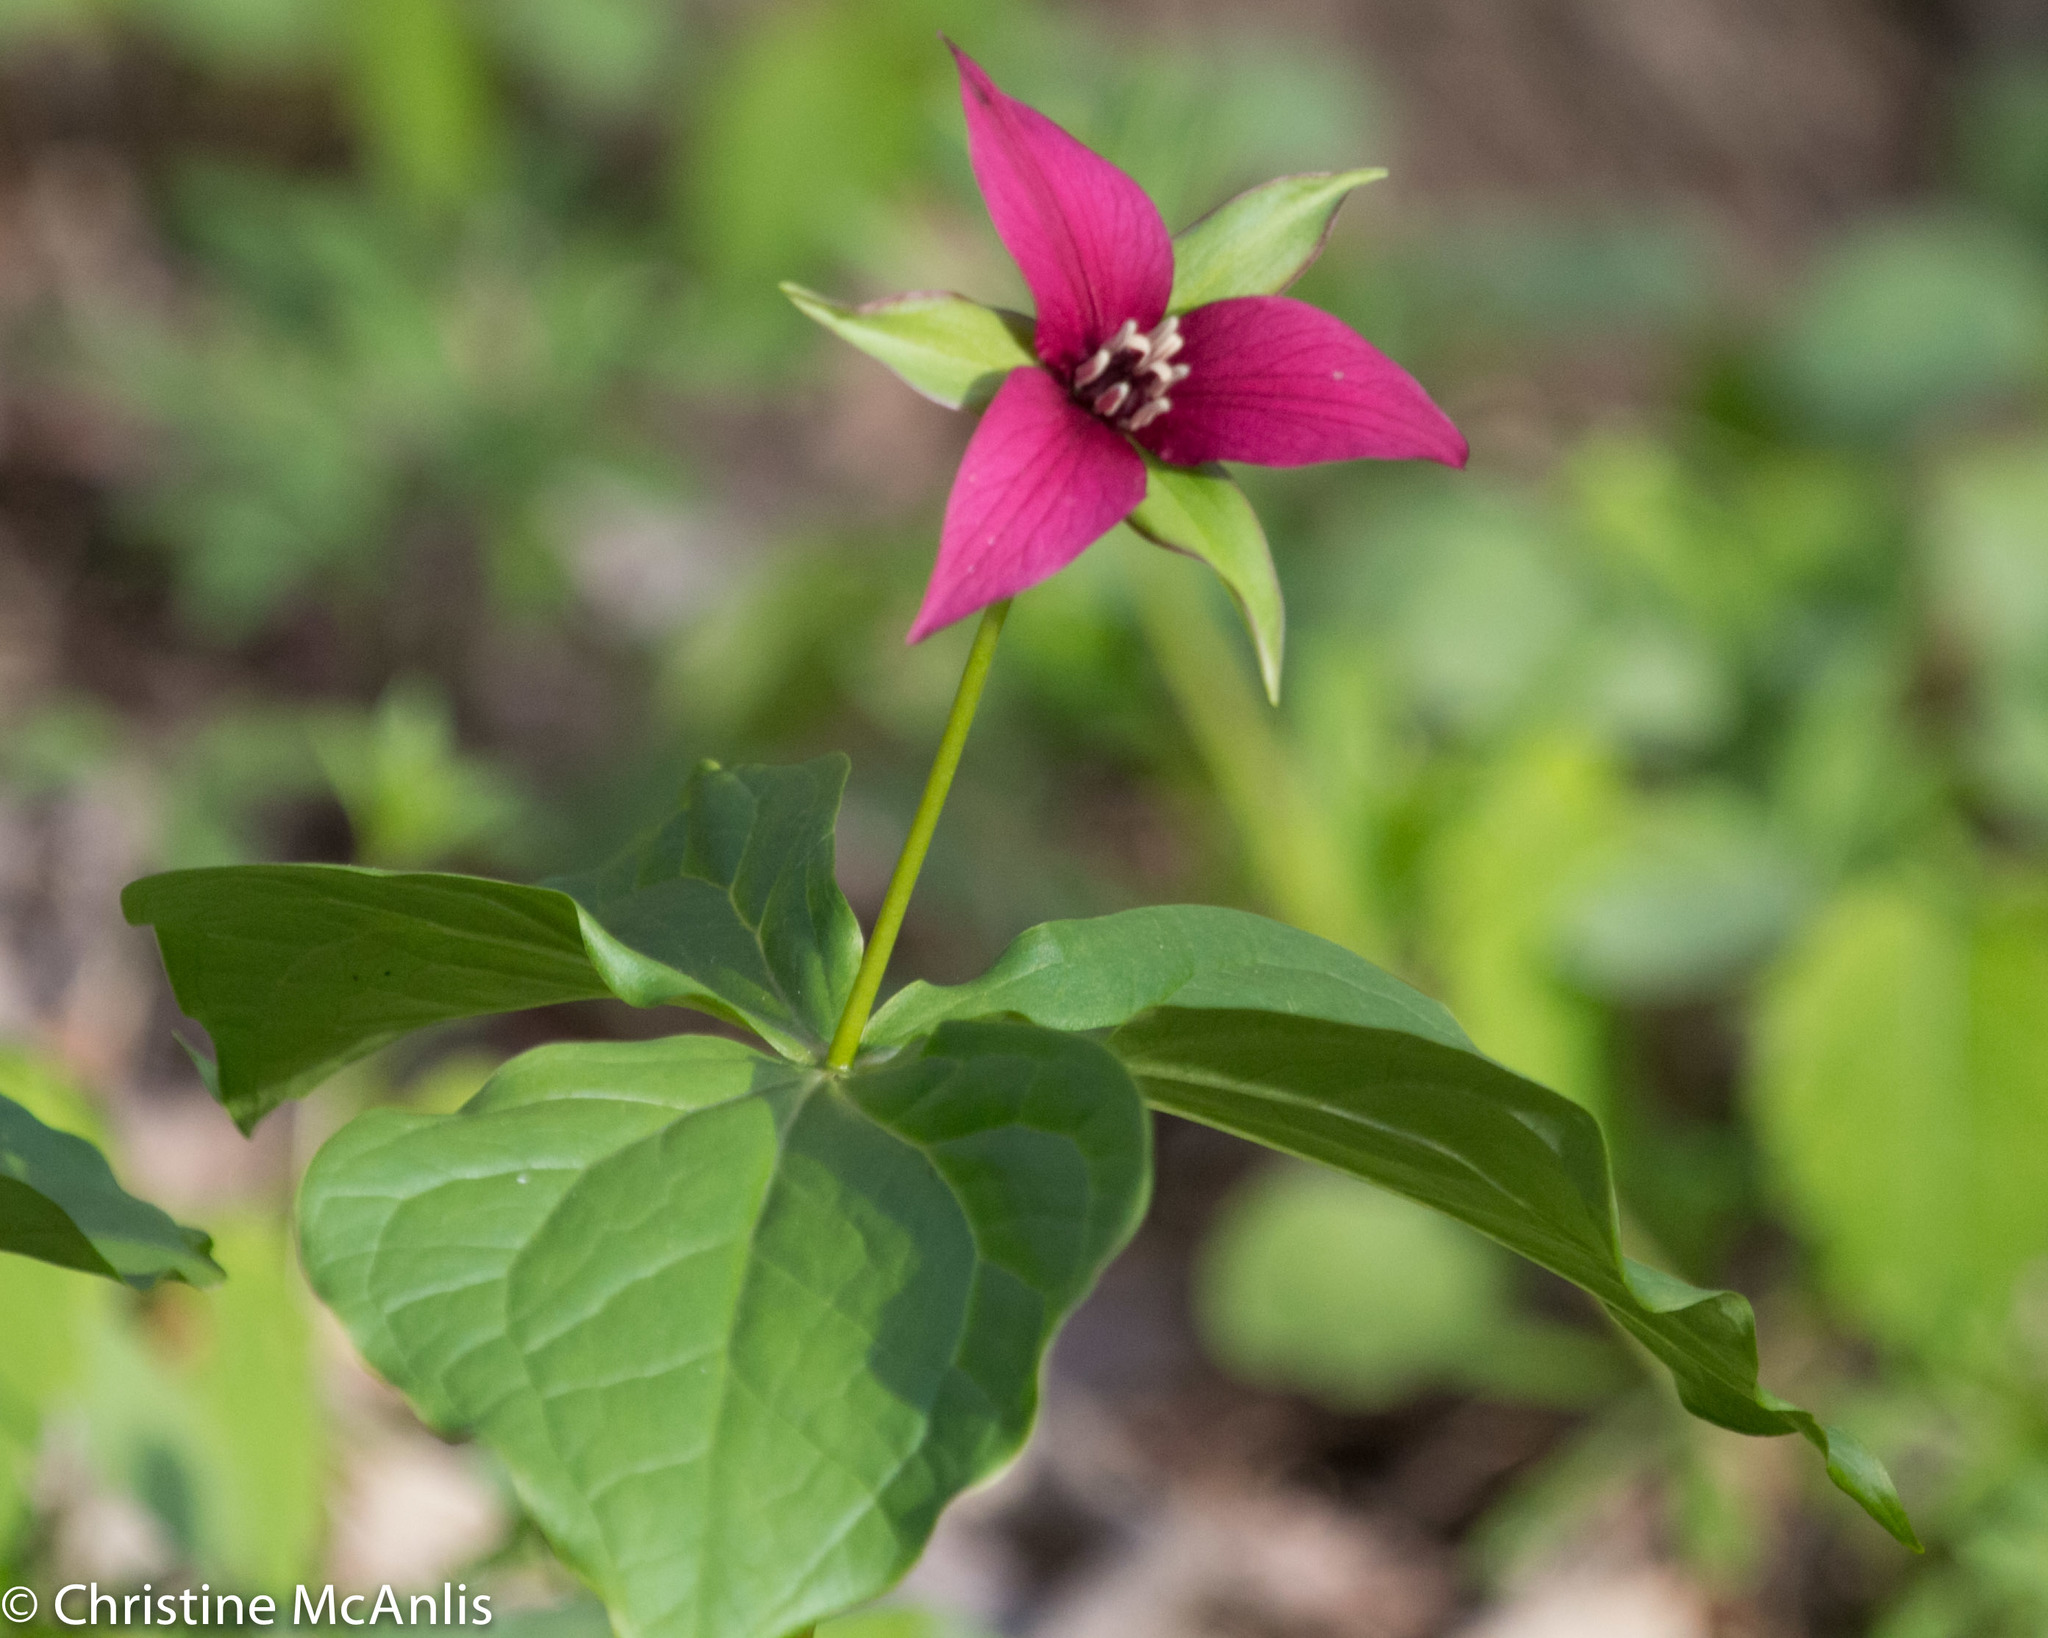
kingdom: Plantae
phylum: Tracheophyta
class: Liliopsida
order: Liliales
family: Melanthiaceae
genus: Trillium
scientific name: Trillium erectum
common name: Purple trillium
